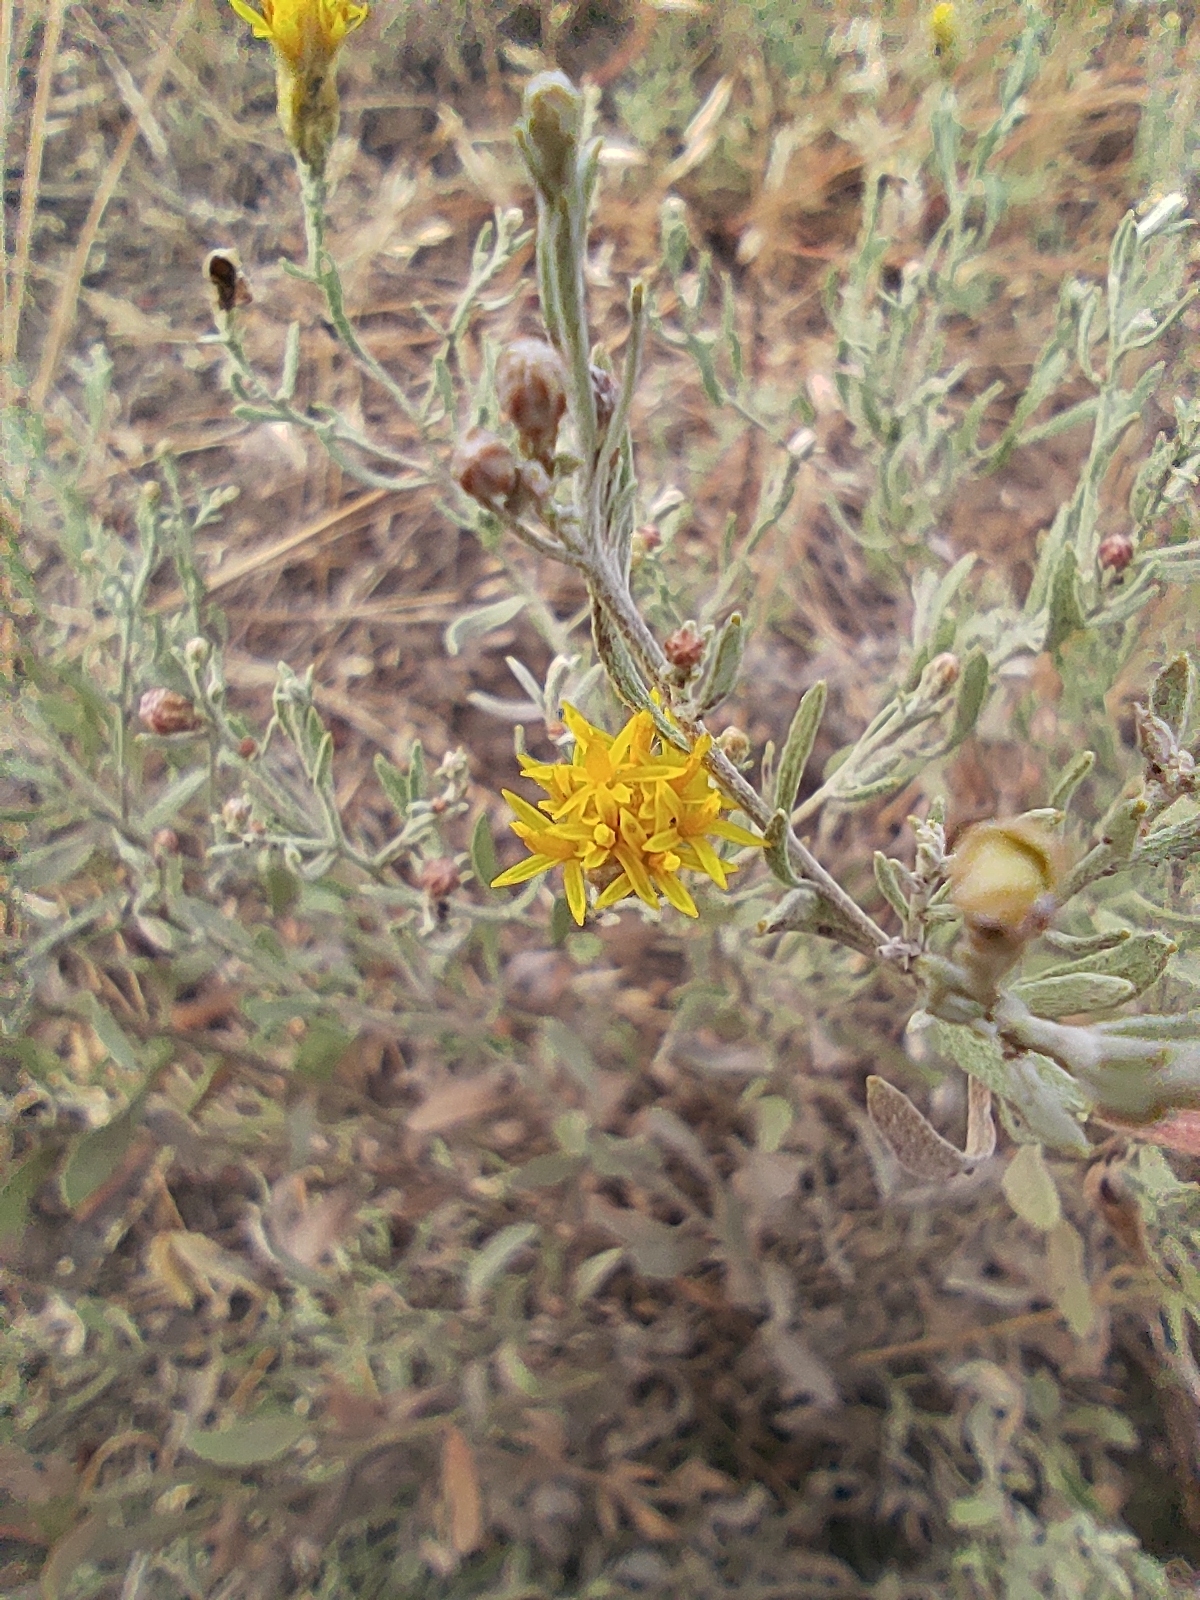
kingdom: Plantae
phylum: Tracheophyta
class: Magnoliopsida
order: Asterales
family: Asteraceae
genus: Galatella
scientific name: Galatella villosa
